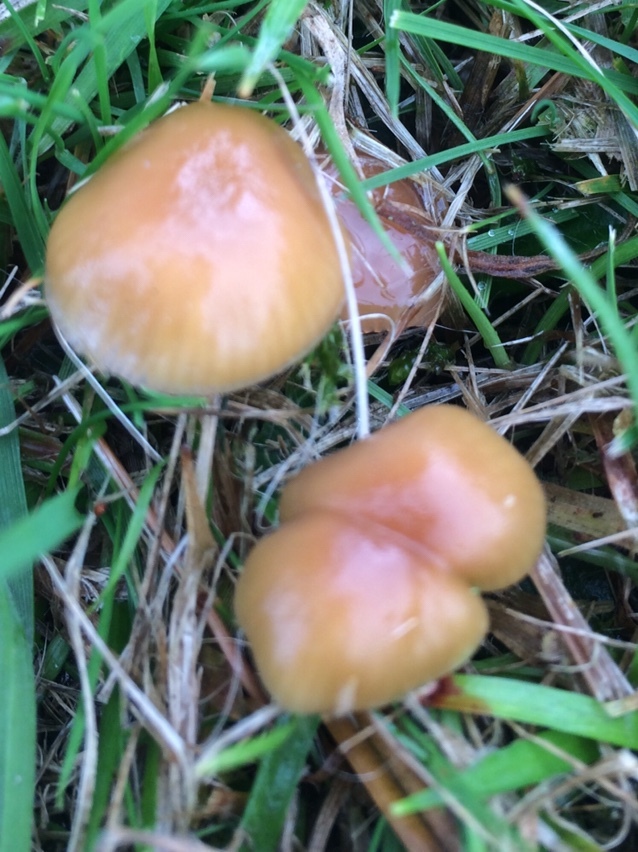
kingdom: Fungi
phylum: Basidiomycota
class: Agaricomycetes
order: Agaricales
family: Hygrophoraceae
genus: Gliophorus
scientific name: Gliophorus laetus
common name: Heath waxcap
